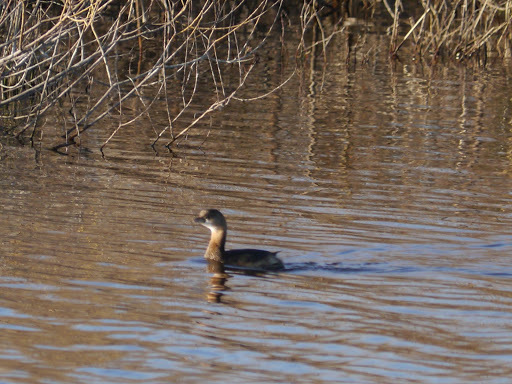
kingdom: Animalia
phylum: Chordata
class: Aves
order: Podicipediformes
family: Podicipedidae
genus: Podilymbus
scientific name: Podilymbus podiceps
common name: Pied-billed grebe
